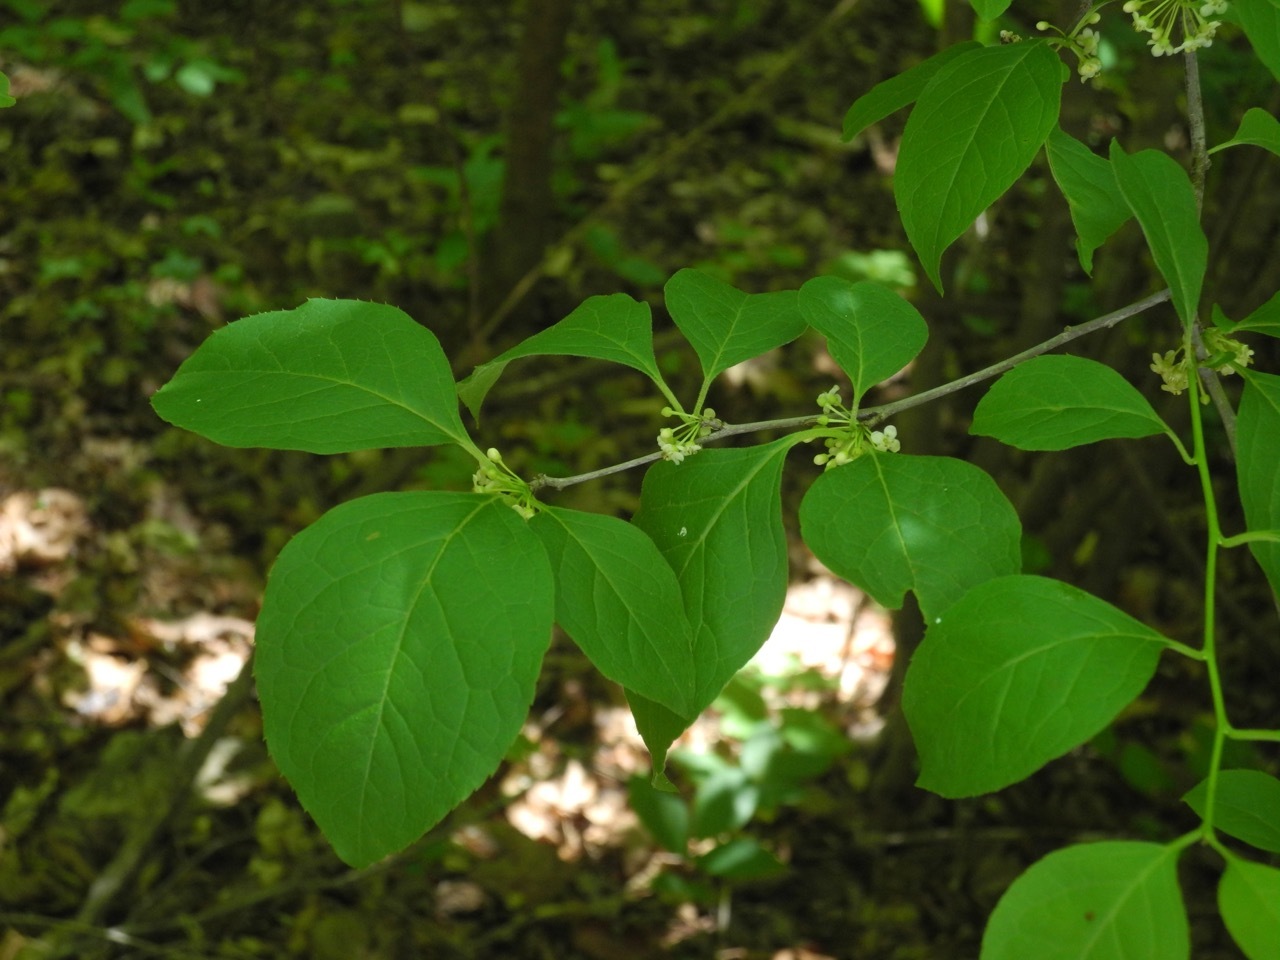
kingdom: Plantae
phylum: Tracheophyta
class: Magnoliopsida
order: Aquifoliales
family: Aquifoliaceae
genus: Ilex
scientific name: Ilex ambigua
